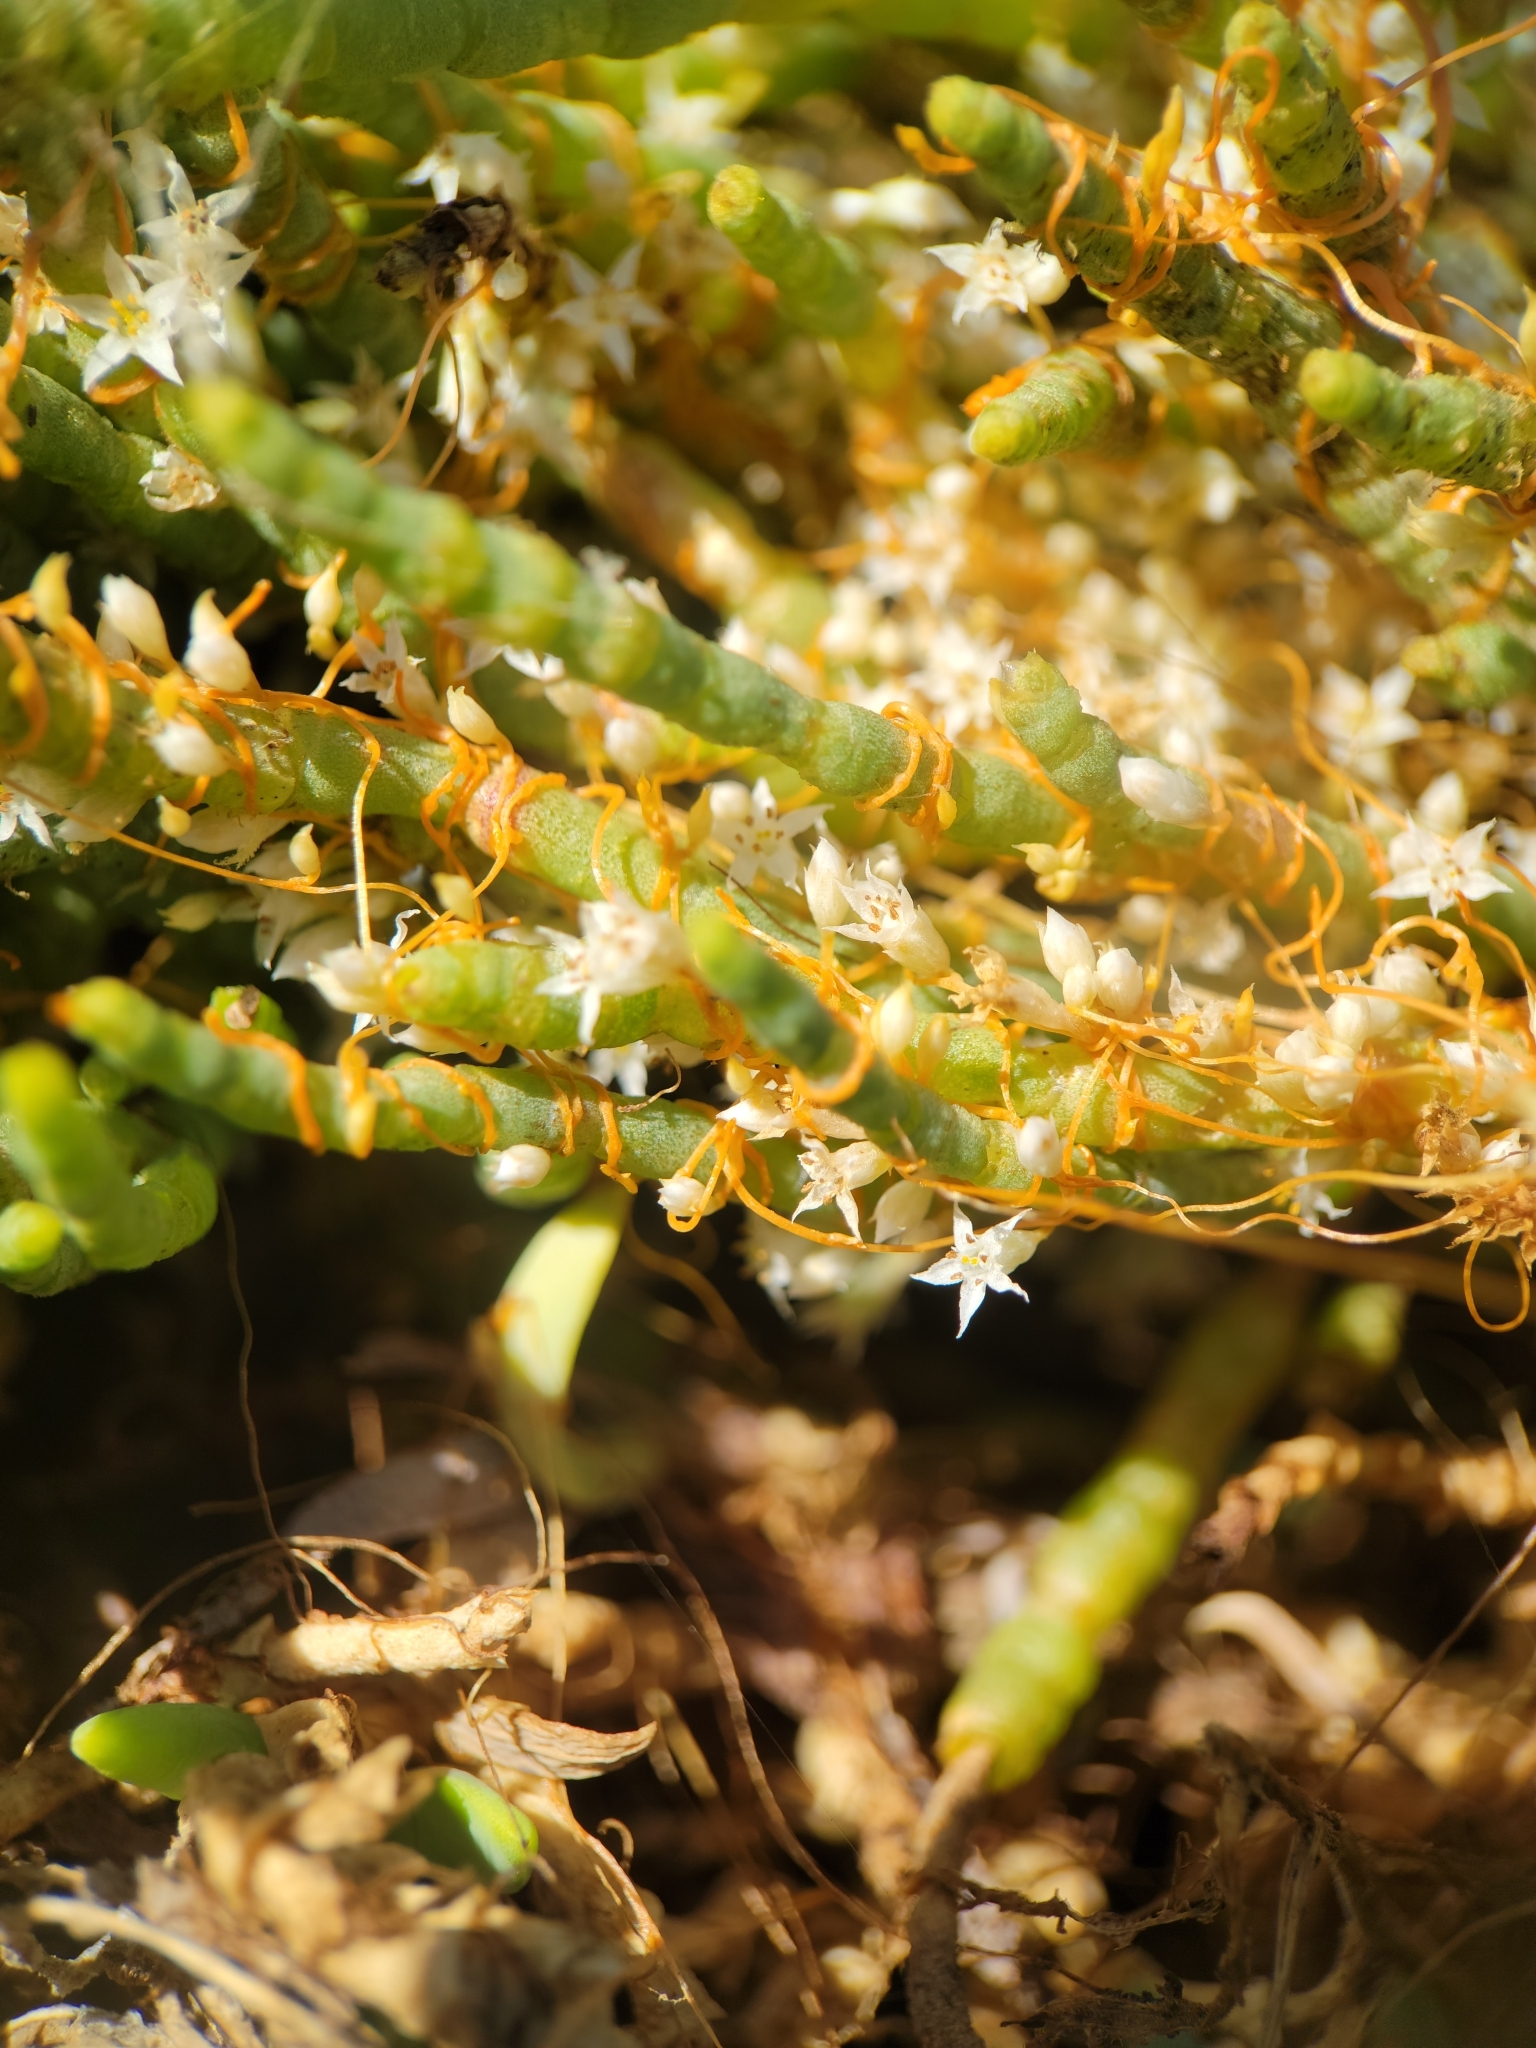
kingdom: Plantae
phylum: Tracheophyta
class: Magnoliopsida
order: Solanales
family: Convolvulaceae
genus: Cuscuta
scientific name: Cuscuta pacifica
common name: Large saltmarsh dodder
